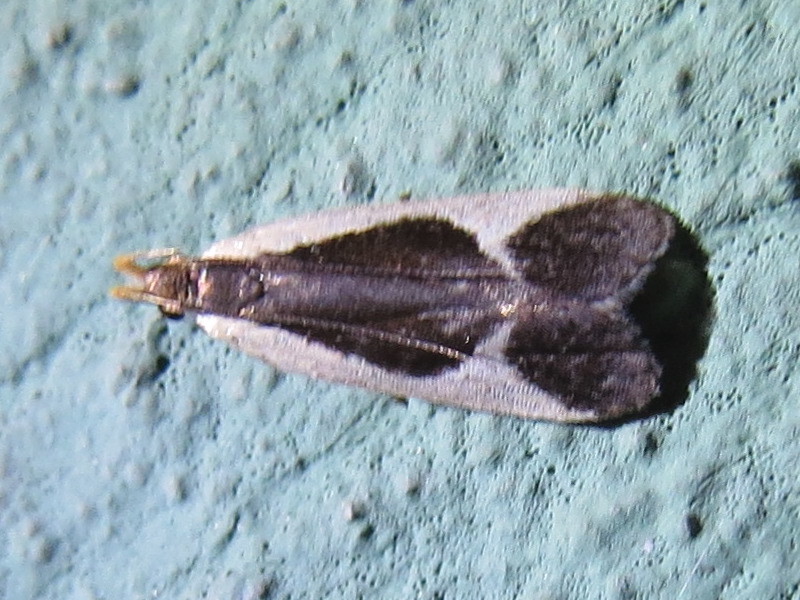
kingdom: Animalia
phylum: Arthropoda
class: Insecta
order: Lepidoptera
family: Gelechiidae
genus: Dichomeris
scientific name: Dichomeris flavocostella
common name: Cream-edged dichomeris moth
